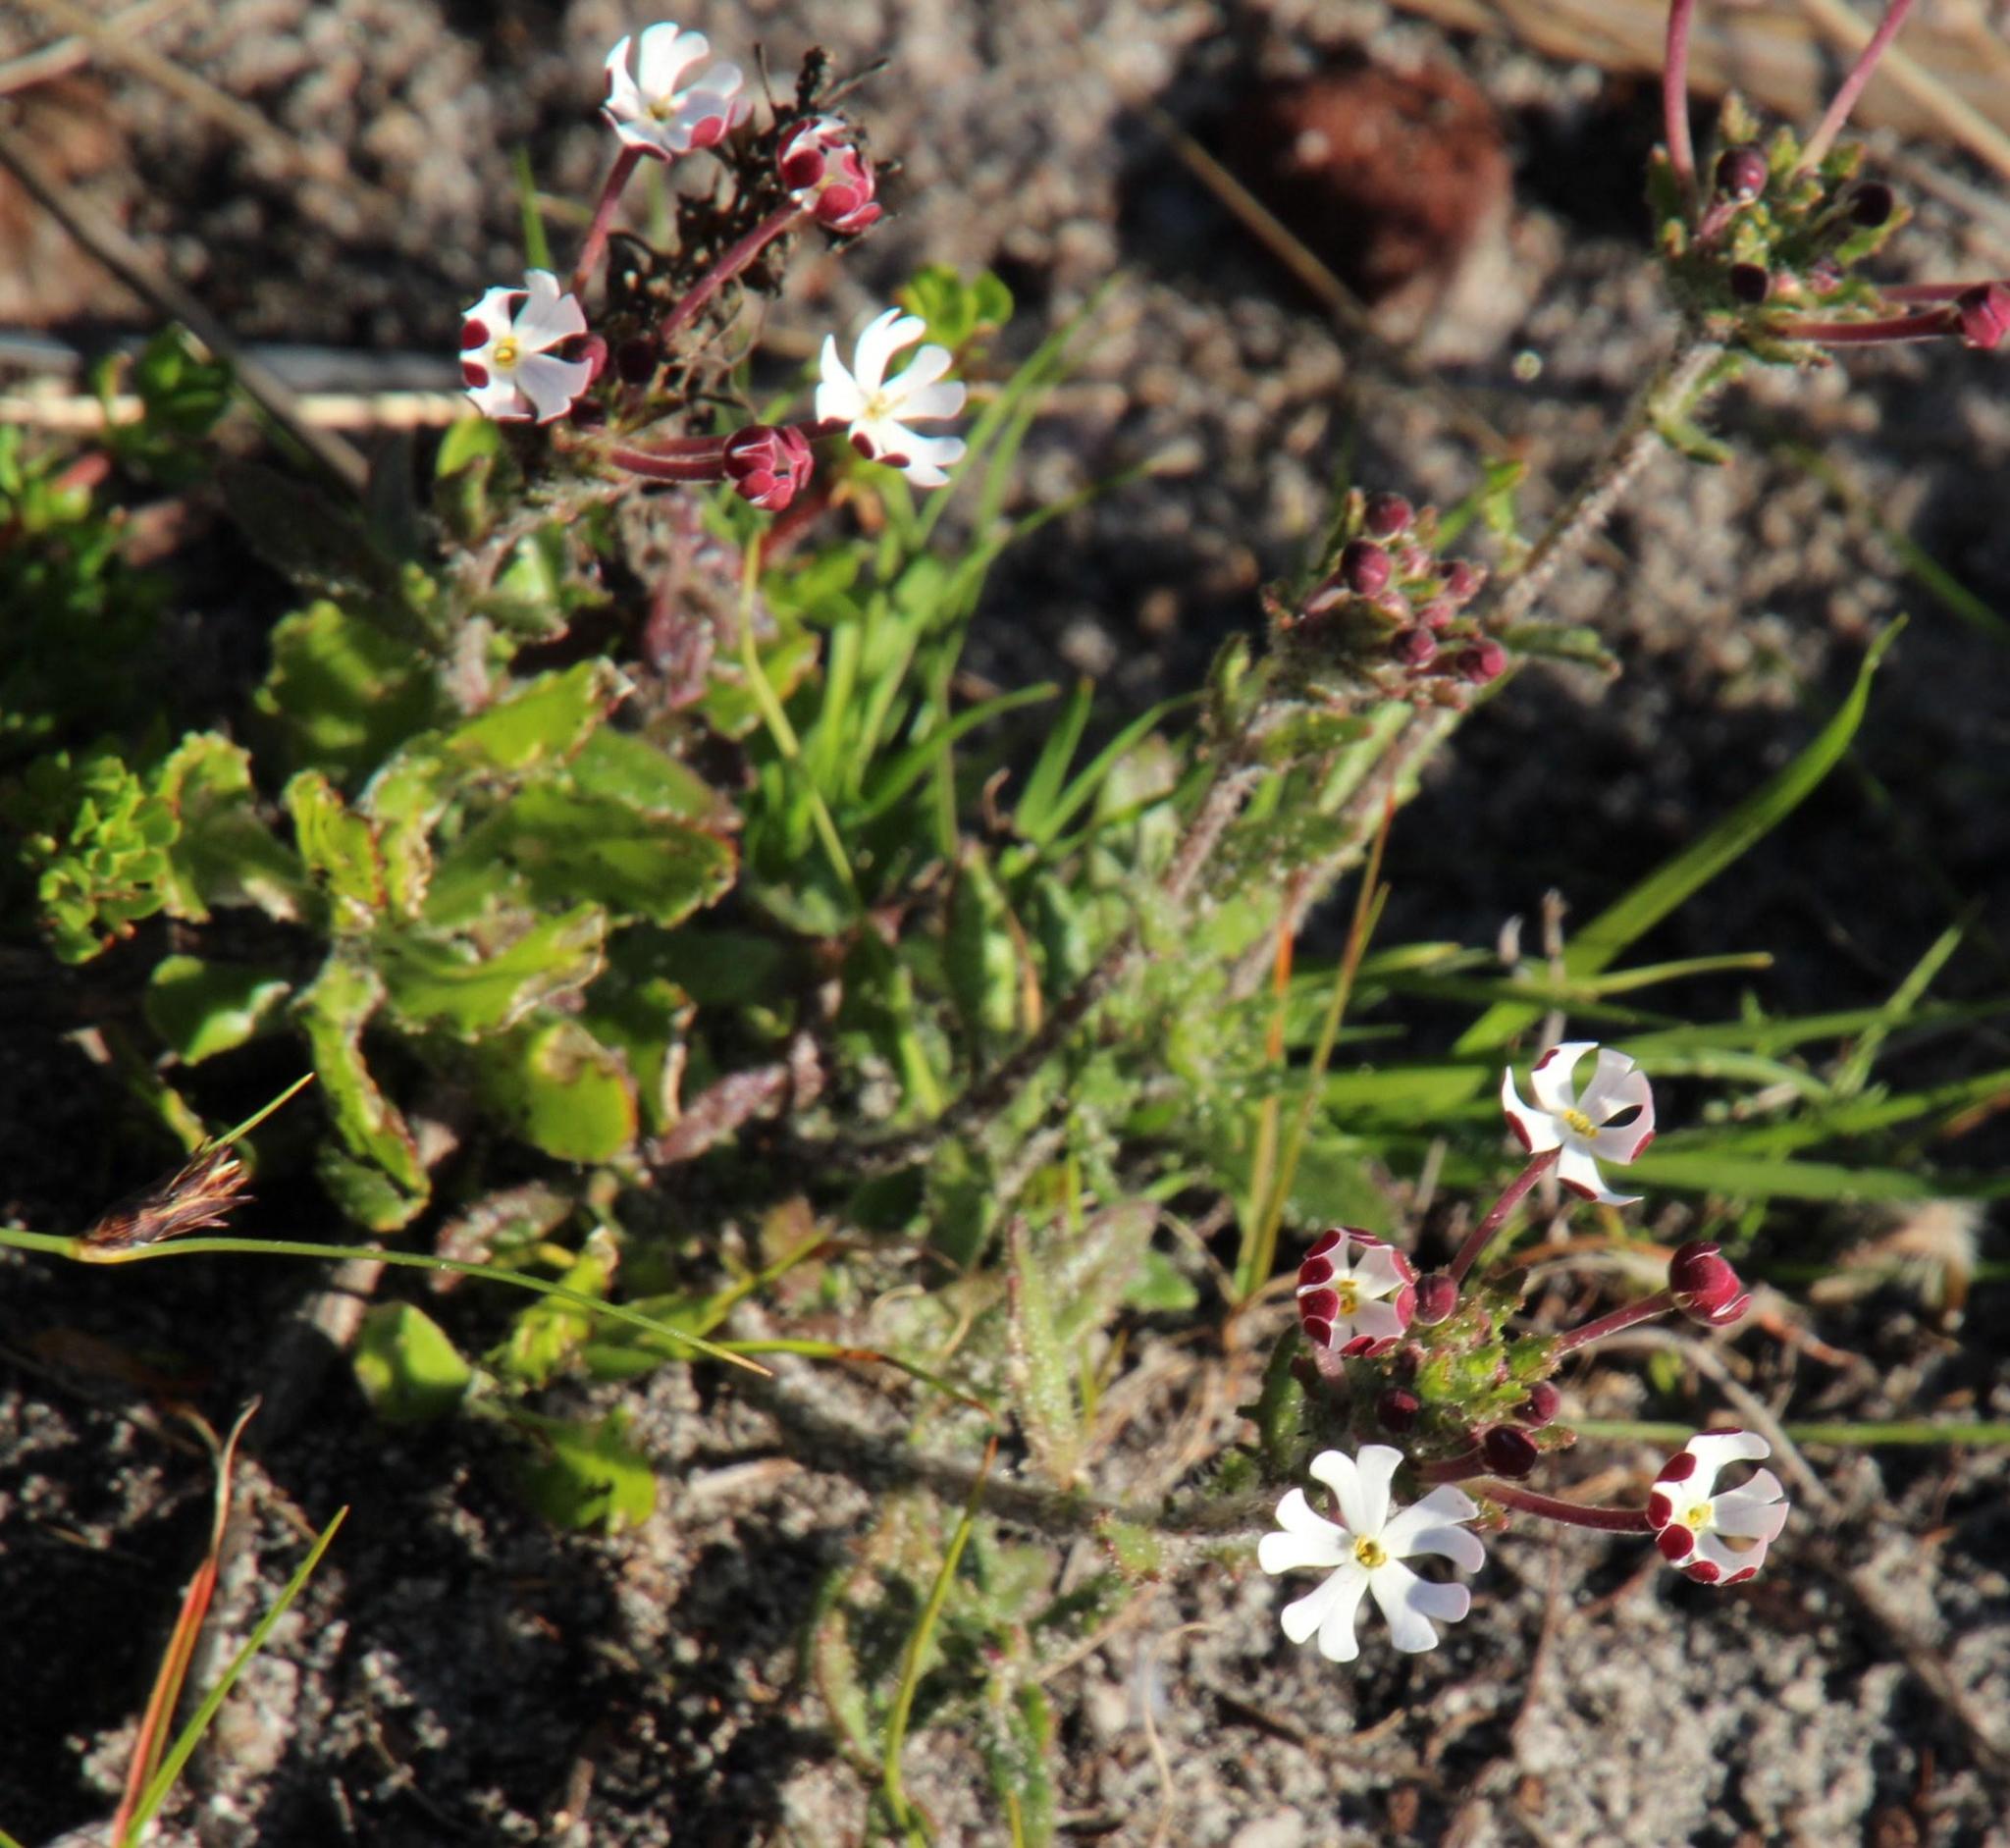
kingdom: Plantae
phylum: Tracheophyta
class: Magnoliopsida
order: Lamiales
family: Scrophulariaceae
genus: Zaluzianskya
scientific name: Zaluzianskya capensis
